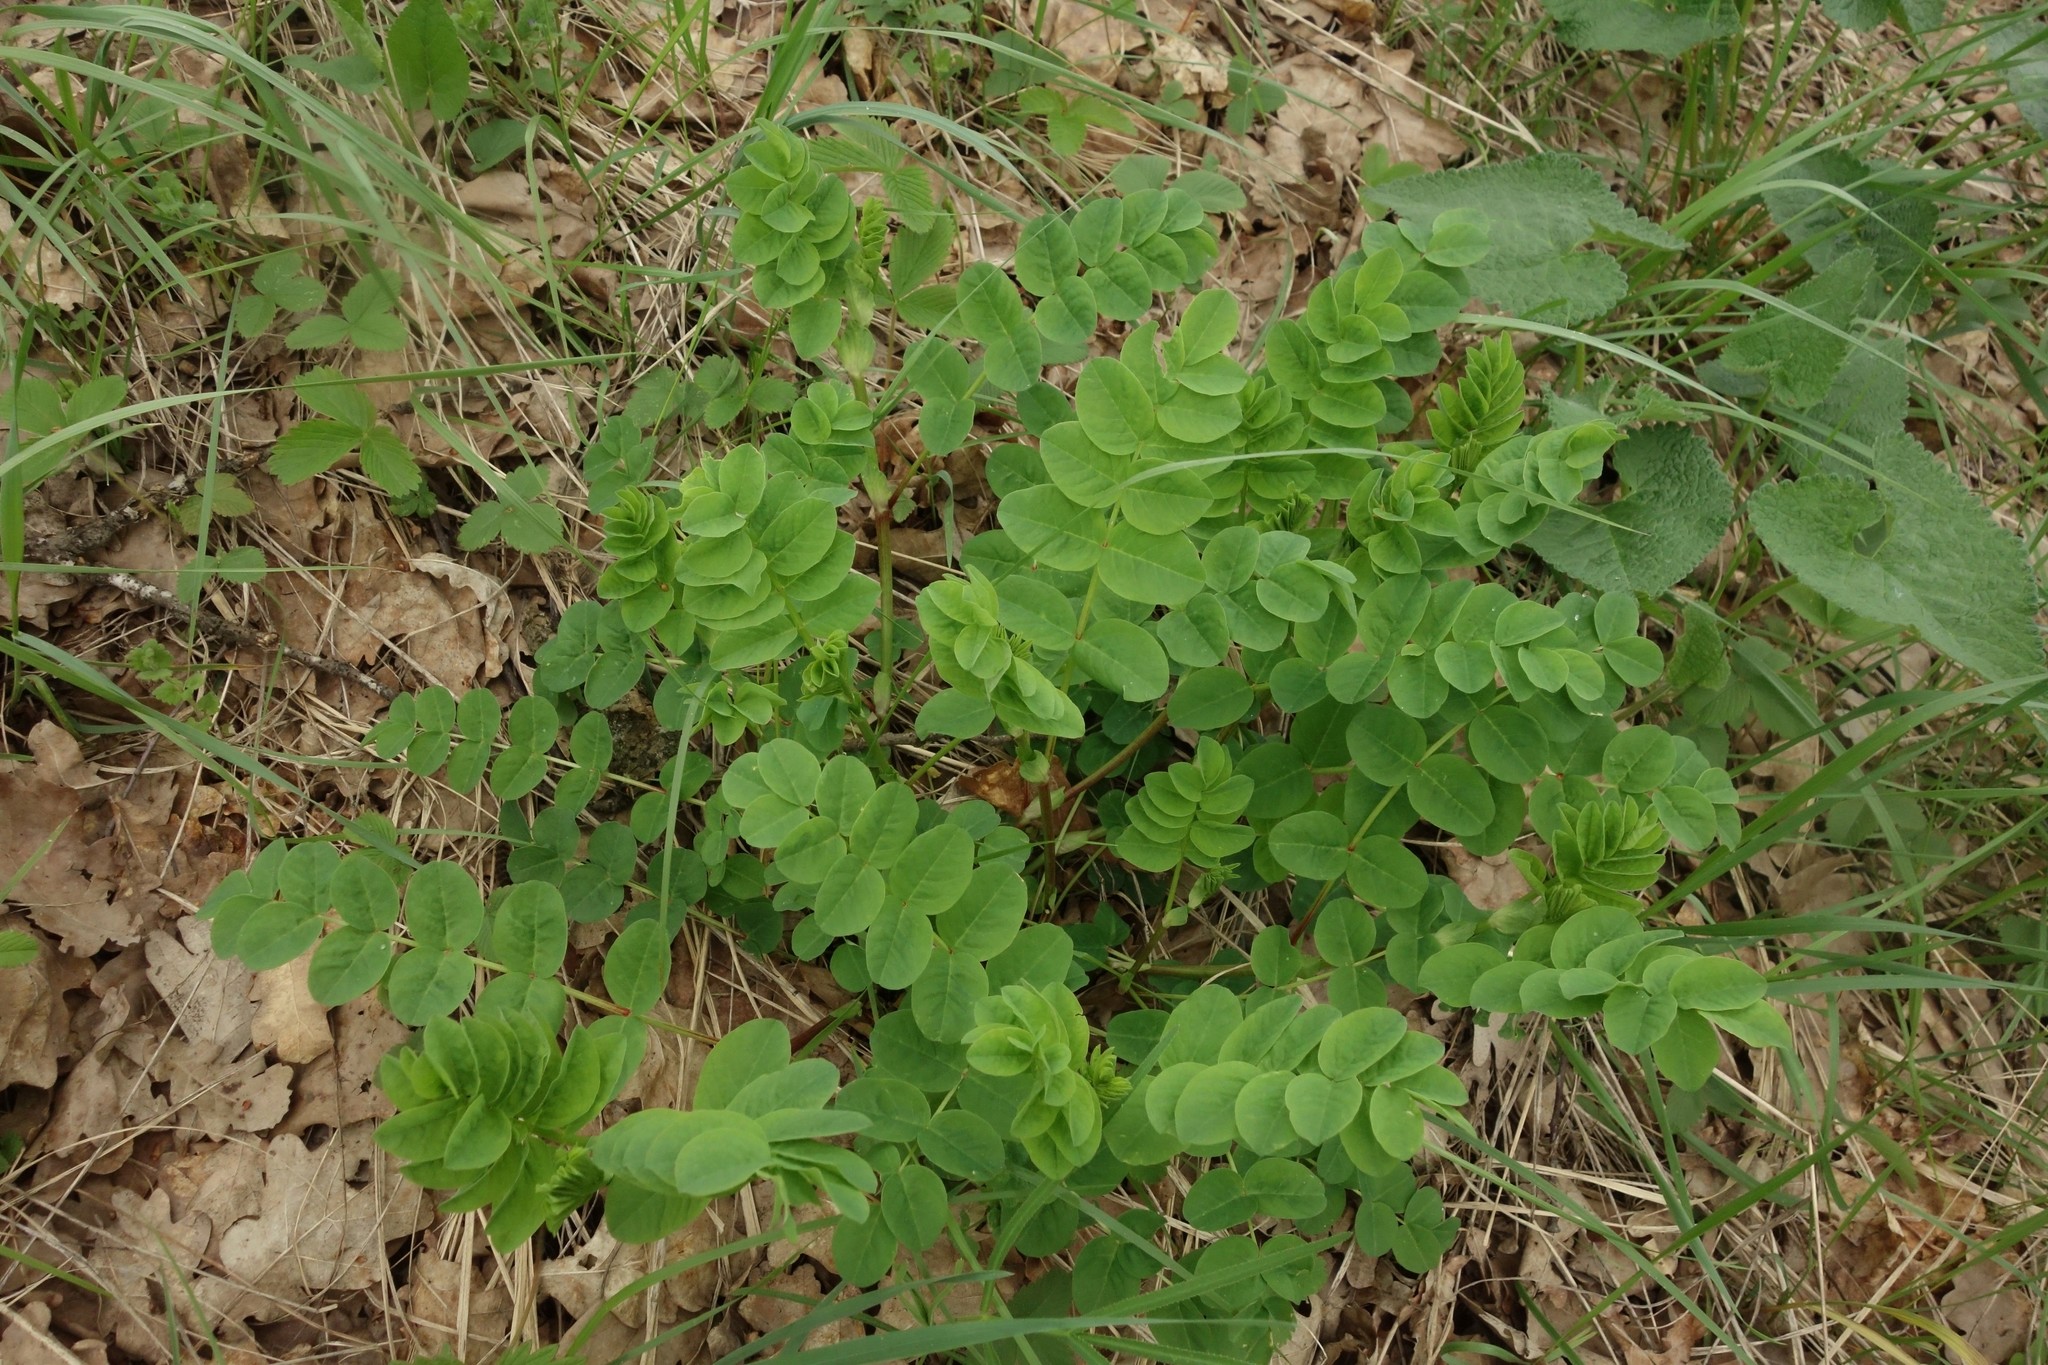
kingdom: Plantae
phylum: Tracheophyta
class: Magnoliopsida
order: Fabales
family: Fabaceae
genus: Astragalus
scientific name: Astragalus glycyphyllos
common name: Wild liquorice
